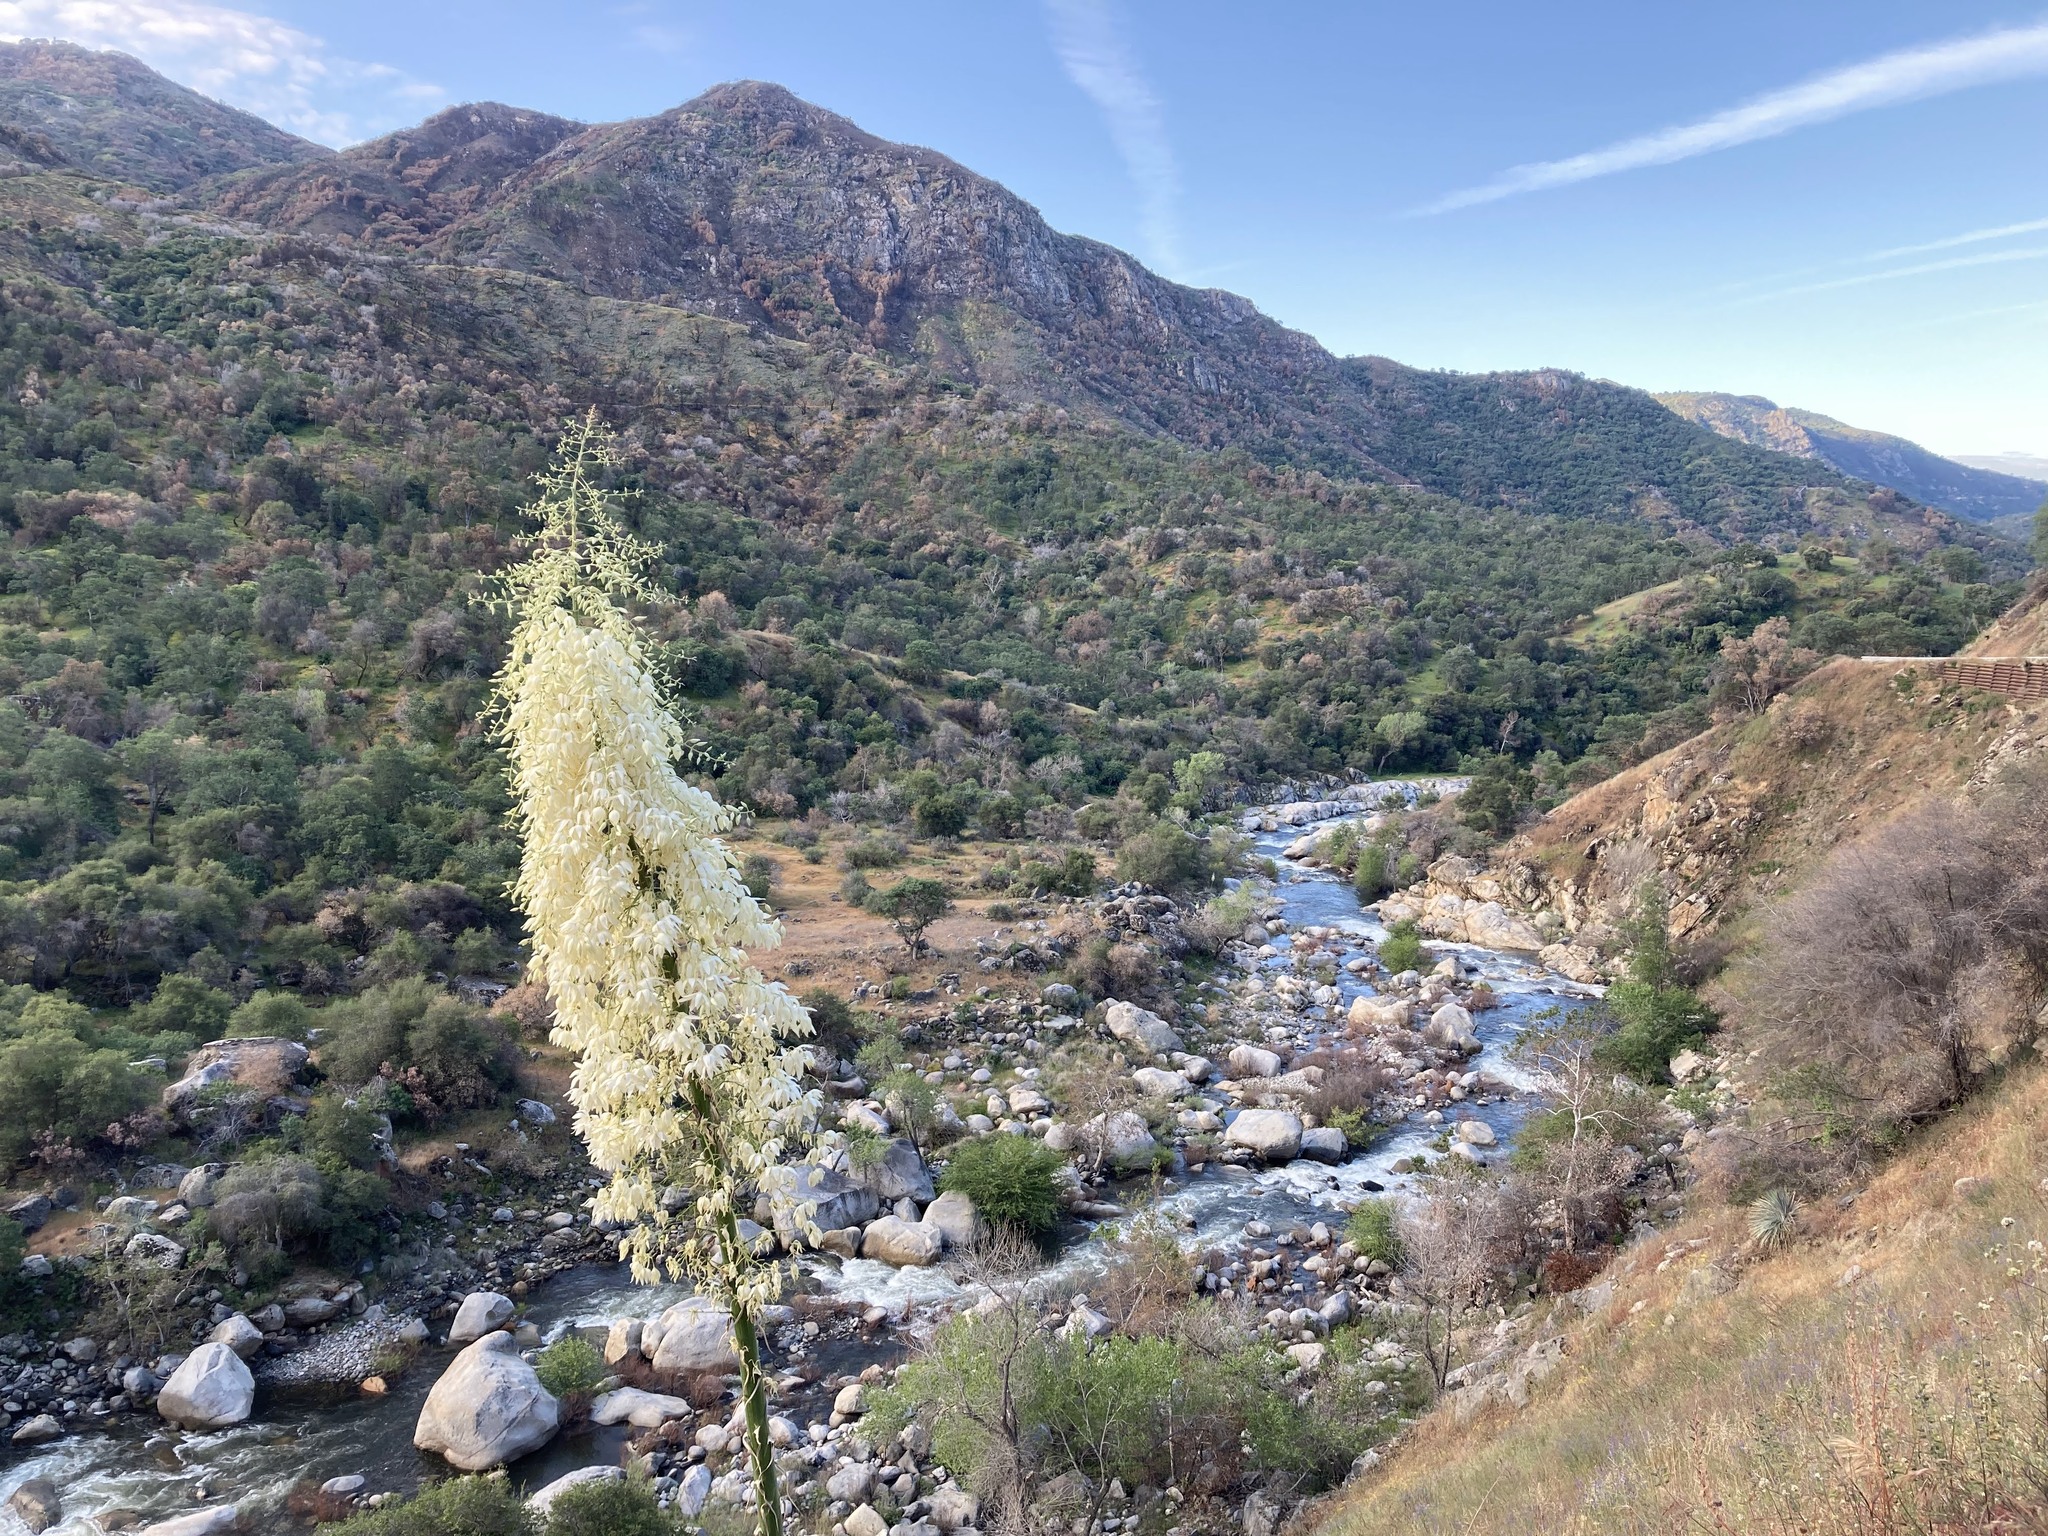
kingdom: Plantae
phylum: Tracheophyta
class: Liliopsida
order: Asparagales
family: Asparagaceae
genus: Hesperoyucca
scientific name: Hesperoyucca whipplei
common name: Our lord's-candle
